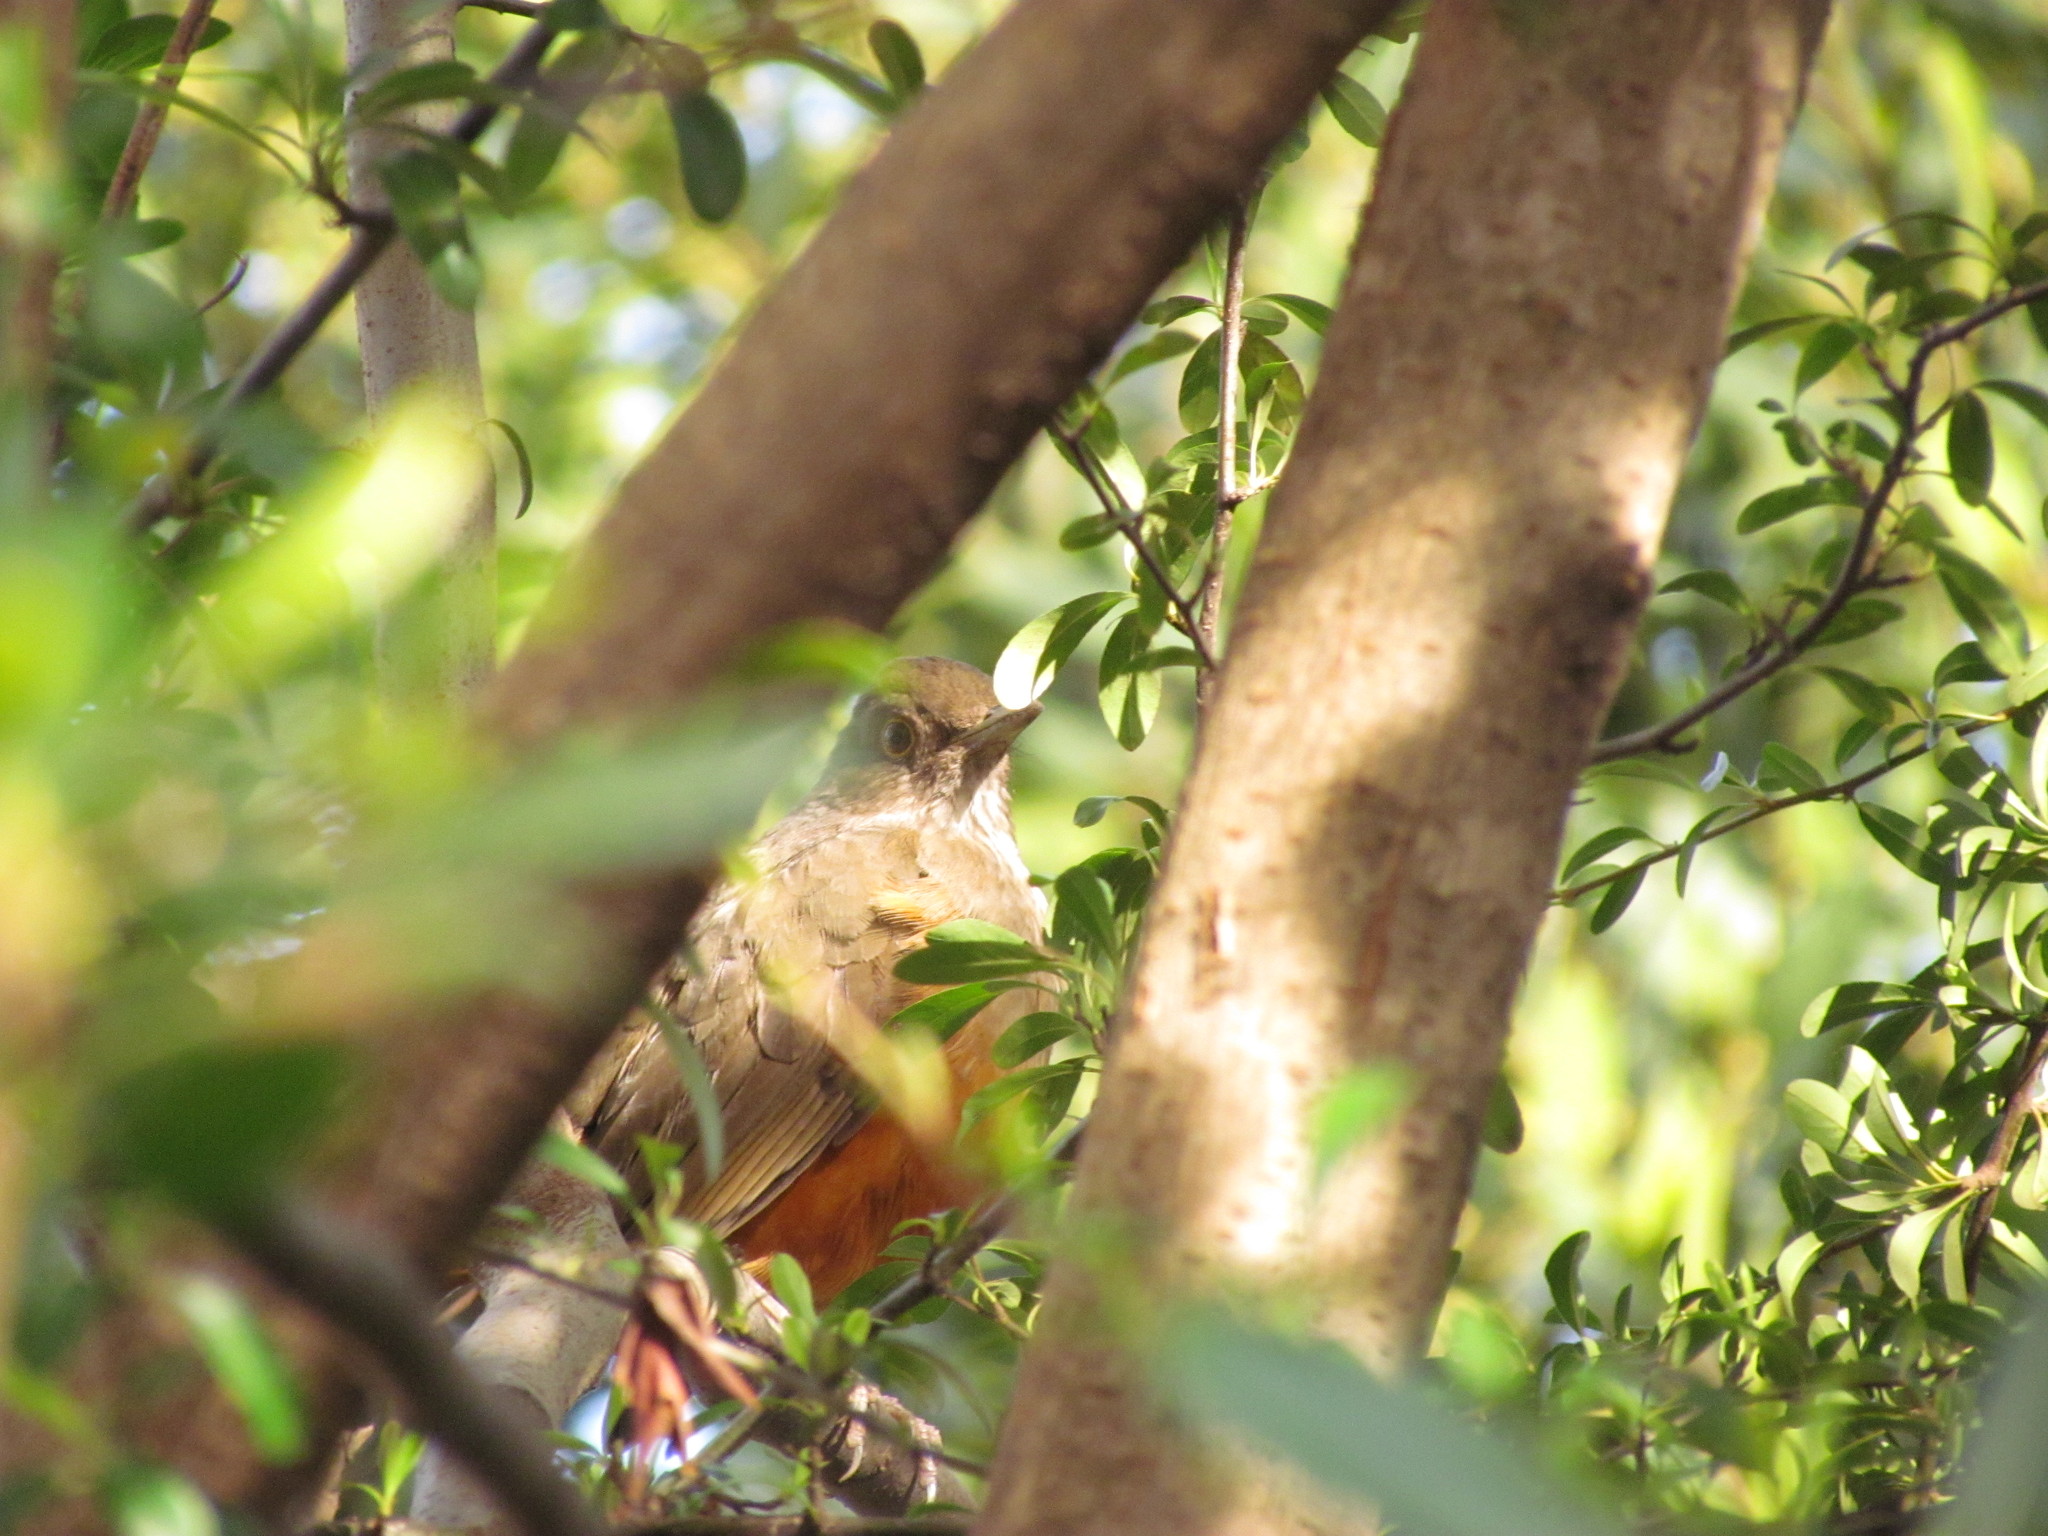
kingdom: Animalia
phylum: Chordata
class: Aves
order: Passeriformes
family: Turdidae
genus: Turdus
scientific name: Turdus rufiventris
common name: Rufous-bellied thrush
